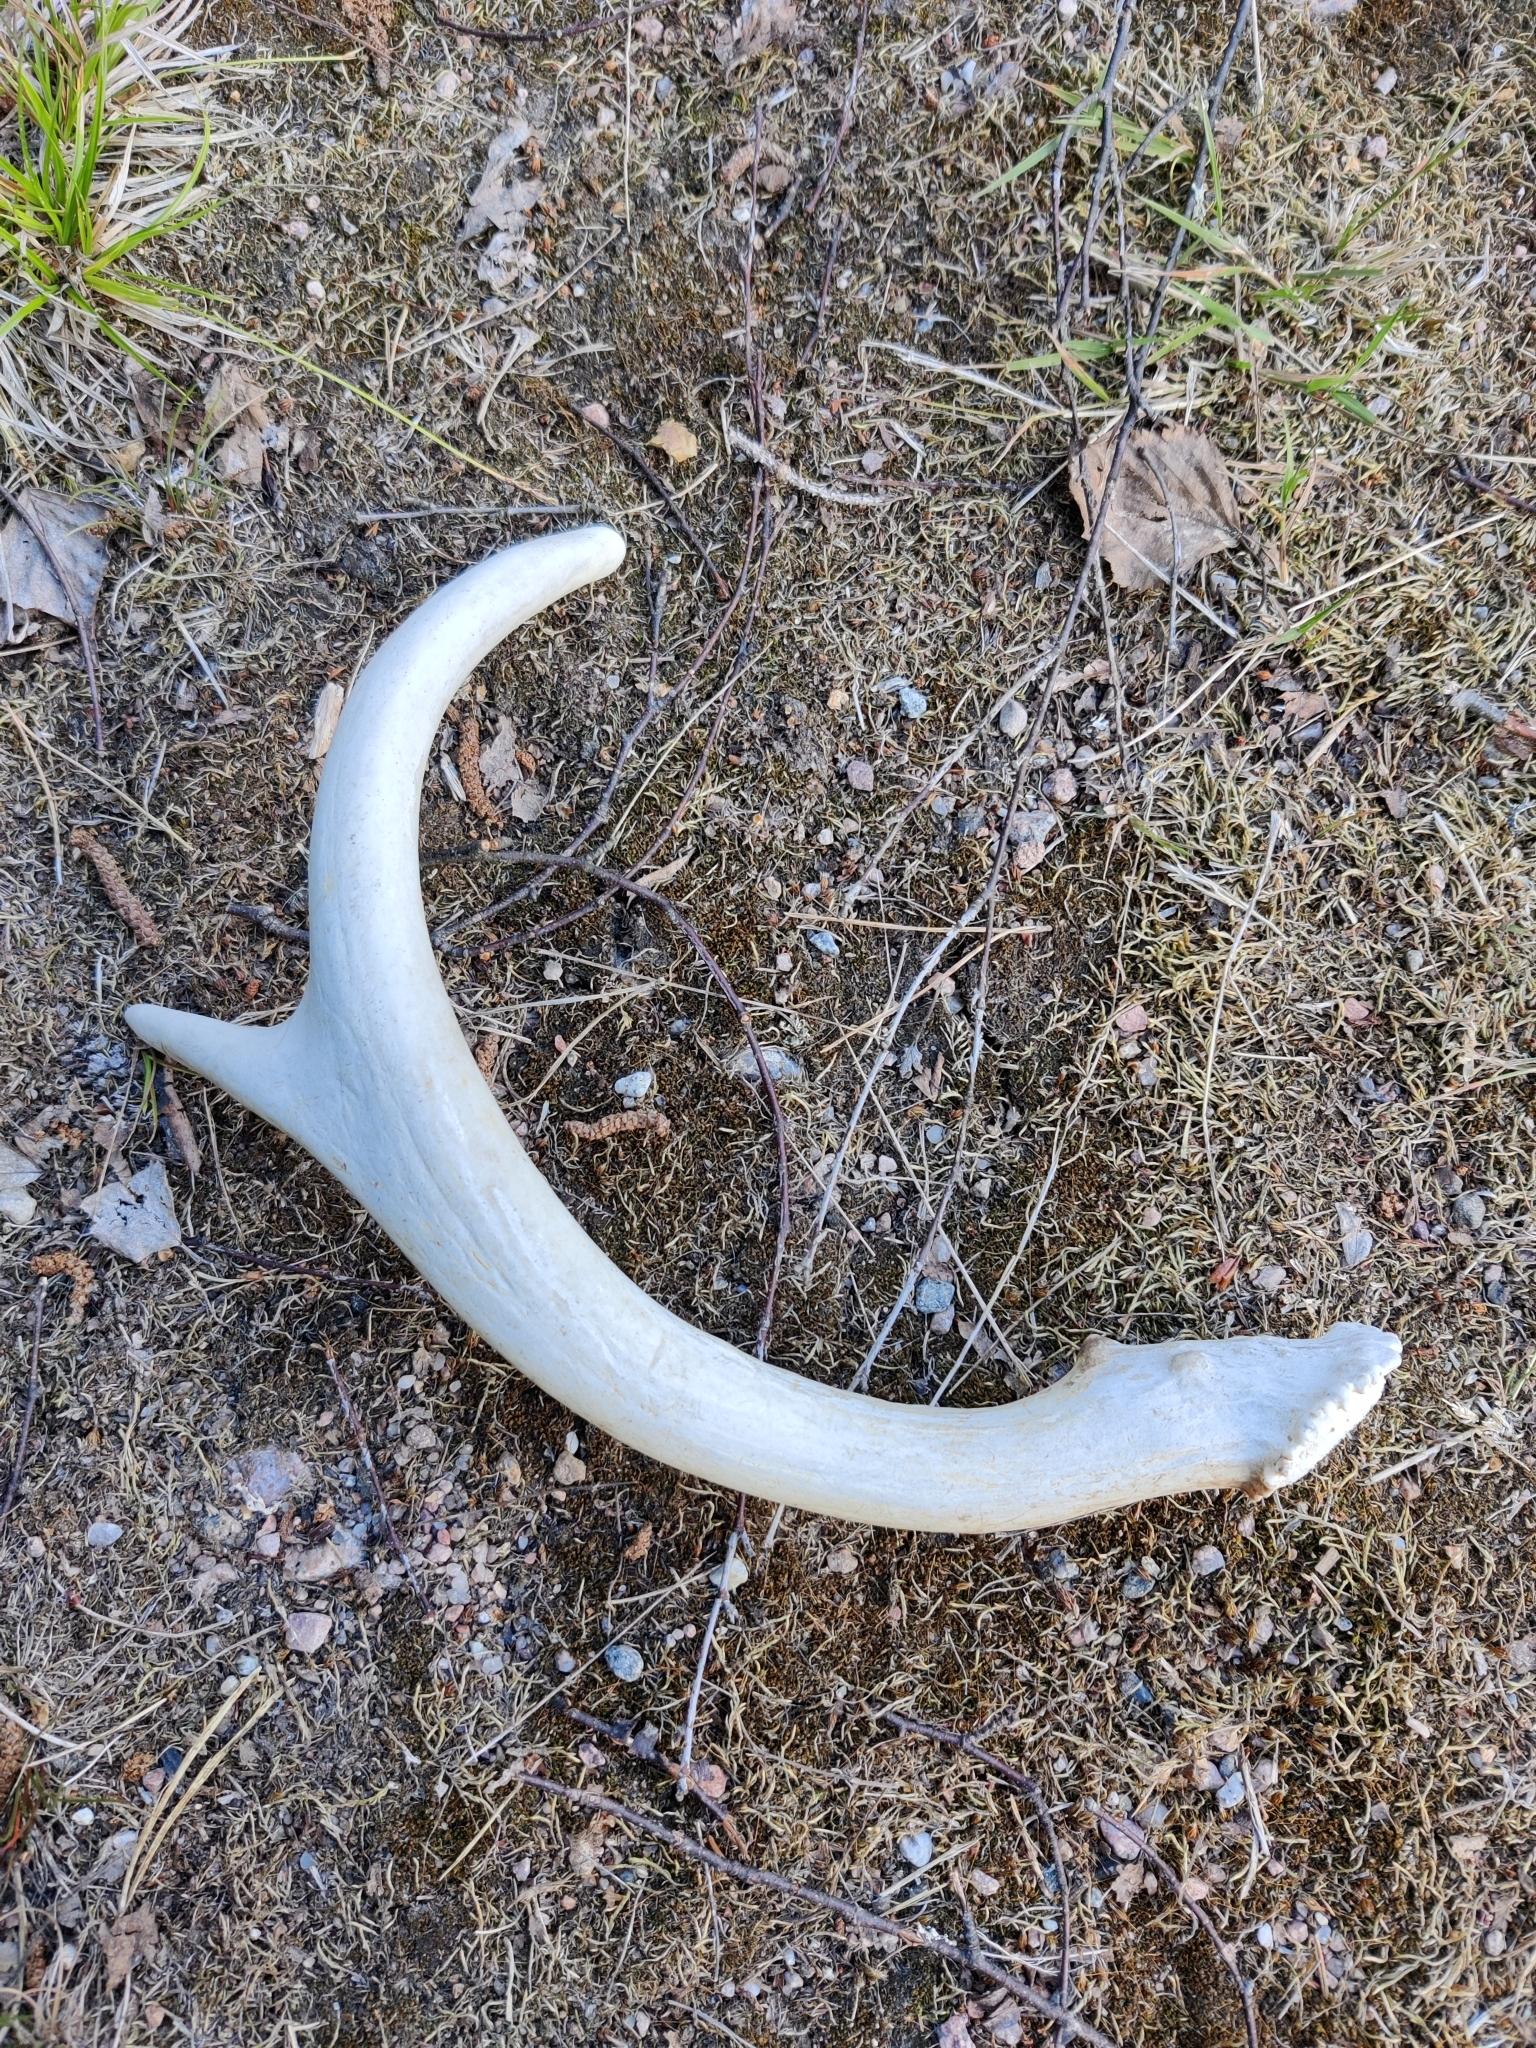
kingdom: Animalia
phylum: Chordata
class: Mammalia
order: Artiodactyla
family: Cervidae
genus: Odocoileus
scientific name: Odocoileus virginianus
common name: White-tailed deer
